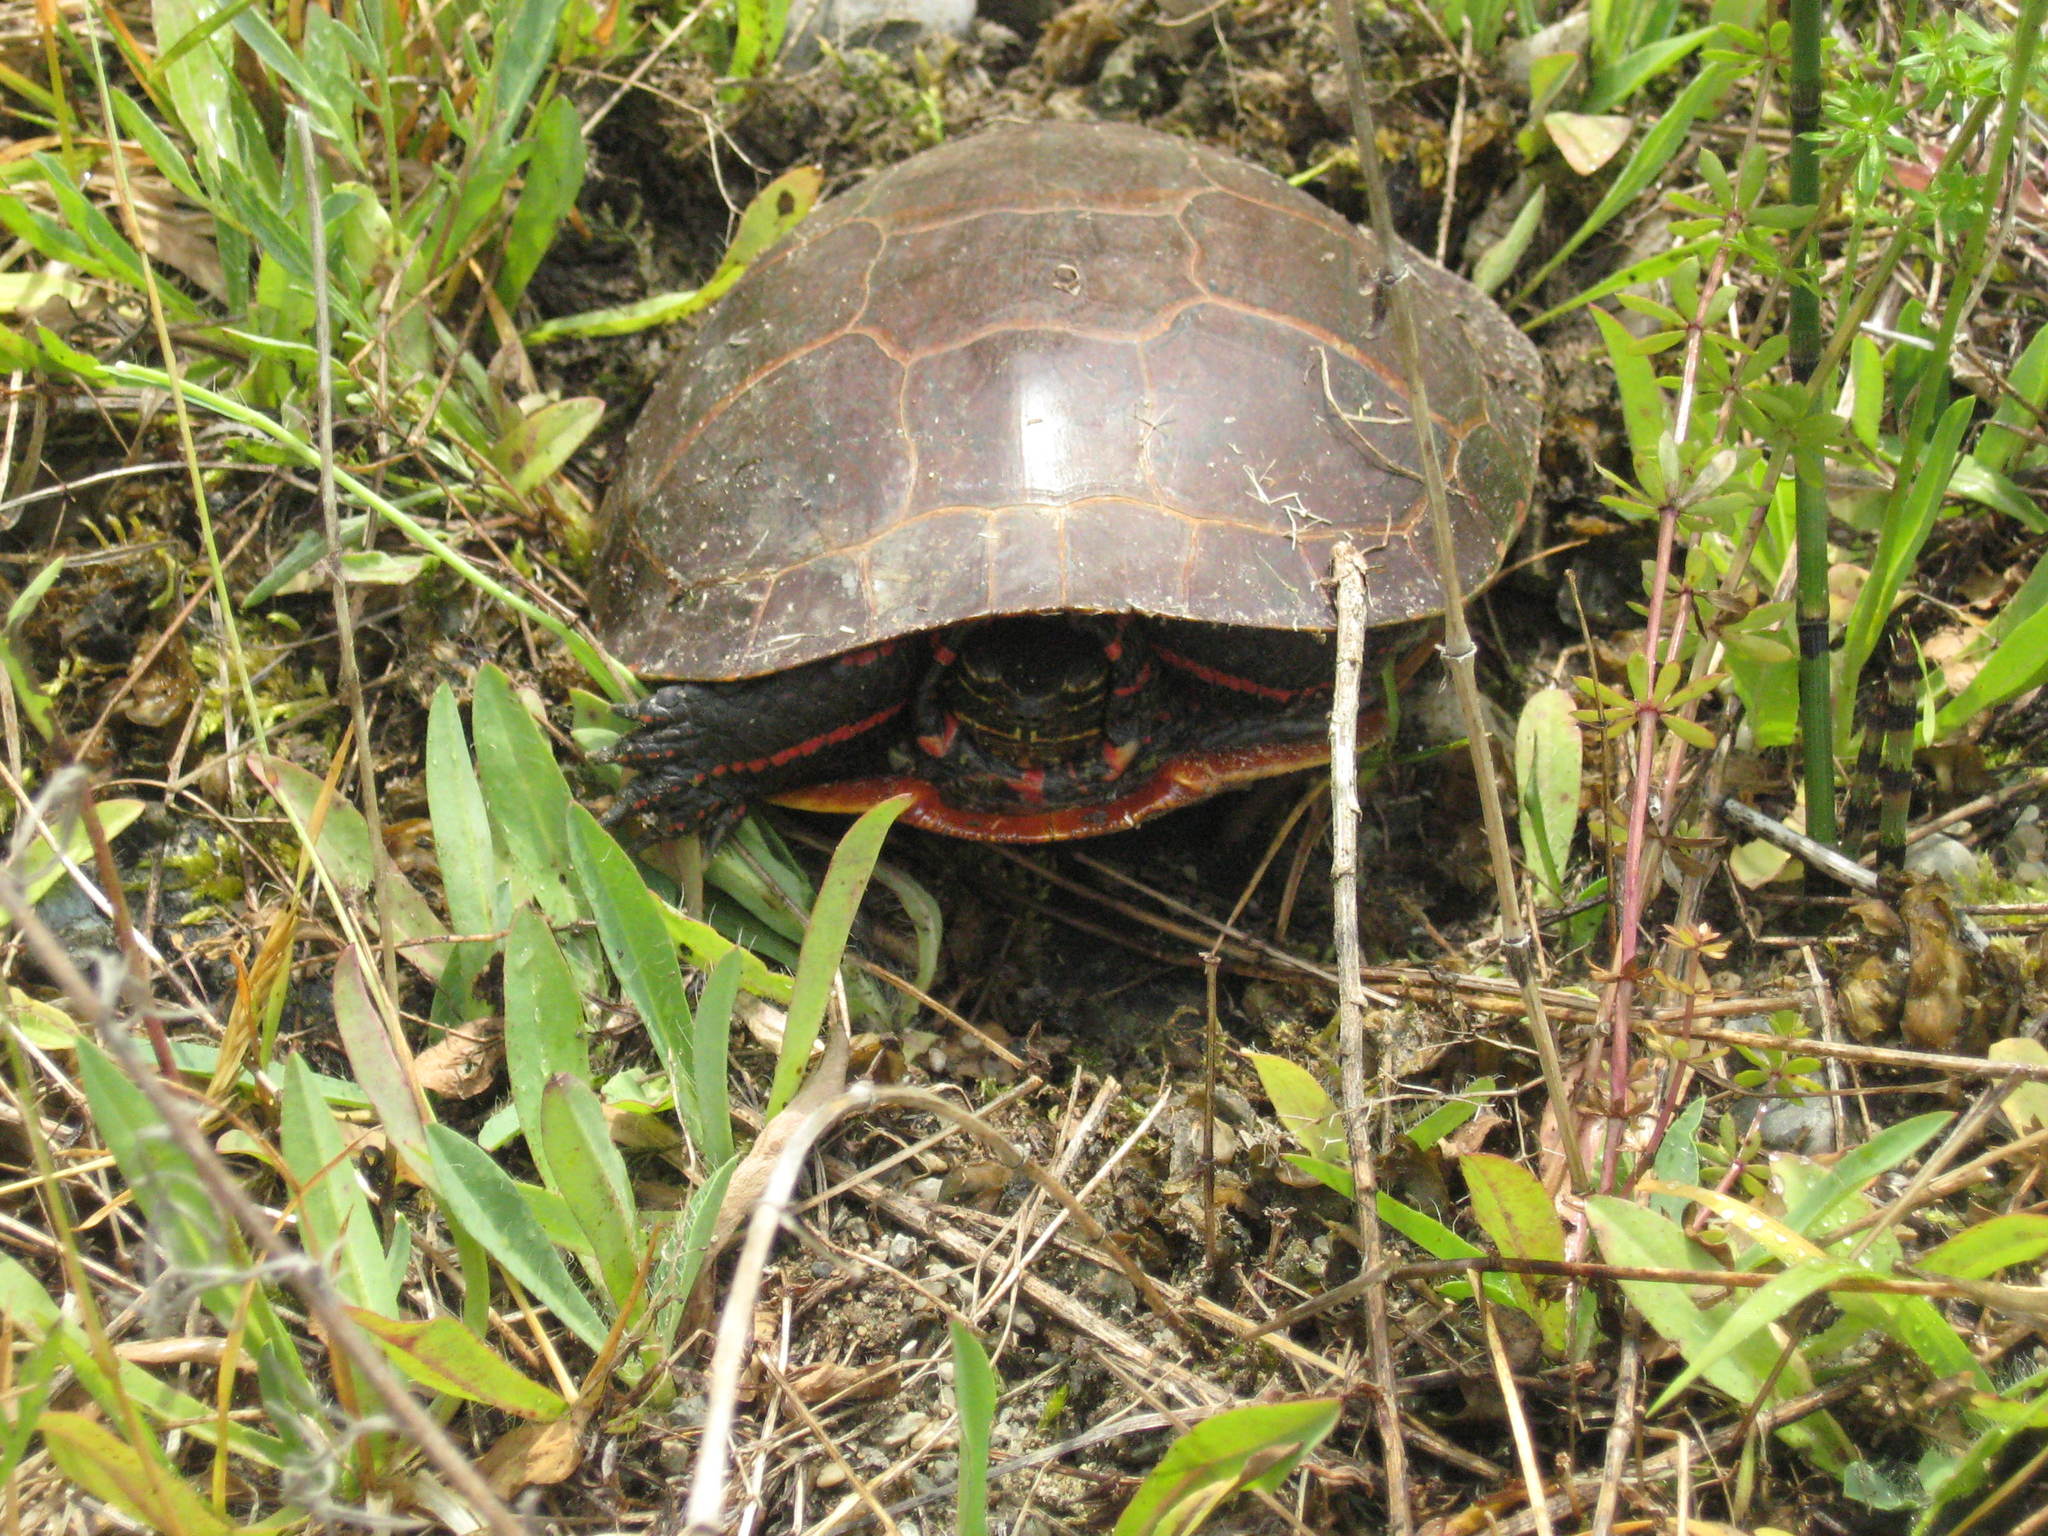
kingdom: Animalia
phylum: Chordata
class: Testudines
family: Emydidae
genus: Chrysemys
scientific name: Chrysemys picta
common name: Painted turtle
